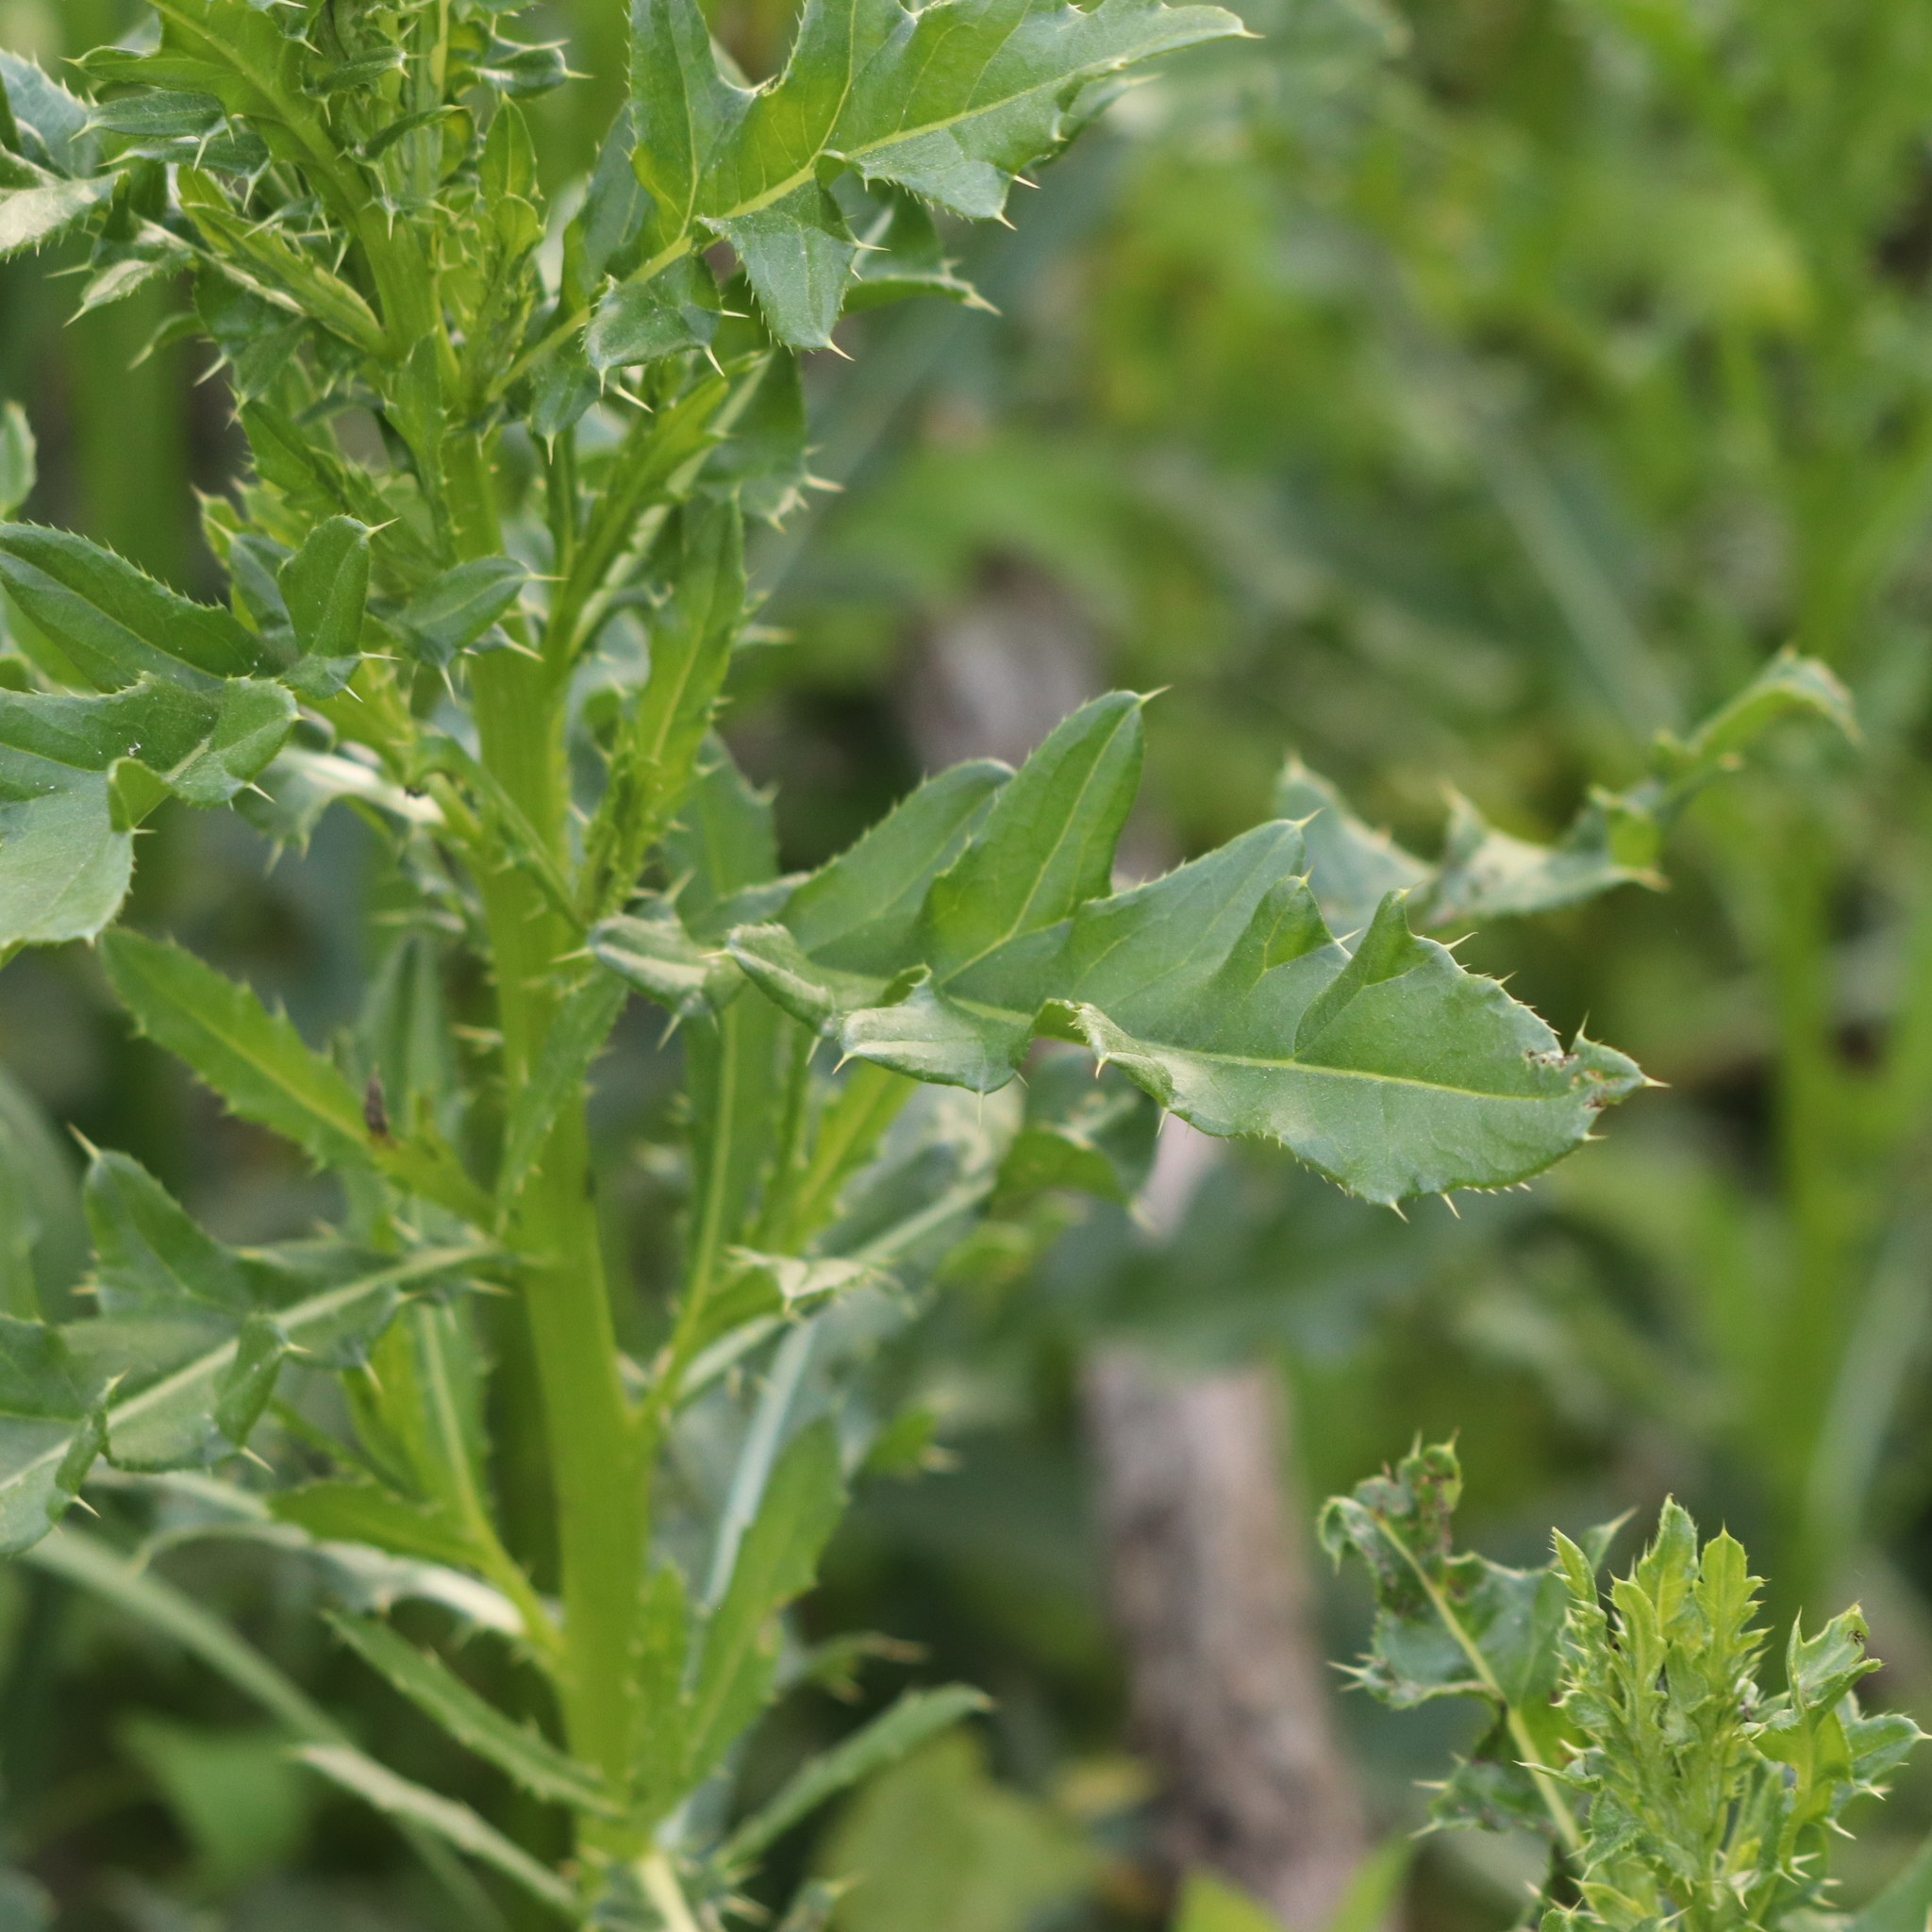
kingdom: Plantae
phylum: Tracheophyta
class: Magnoliopsida
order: Asterales
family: Asteraceae
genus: Cirsium
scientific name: Cirsium arvense
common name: Creeping thistle
